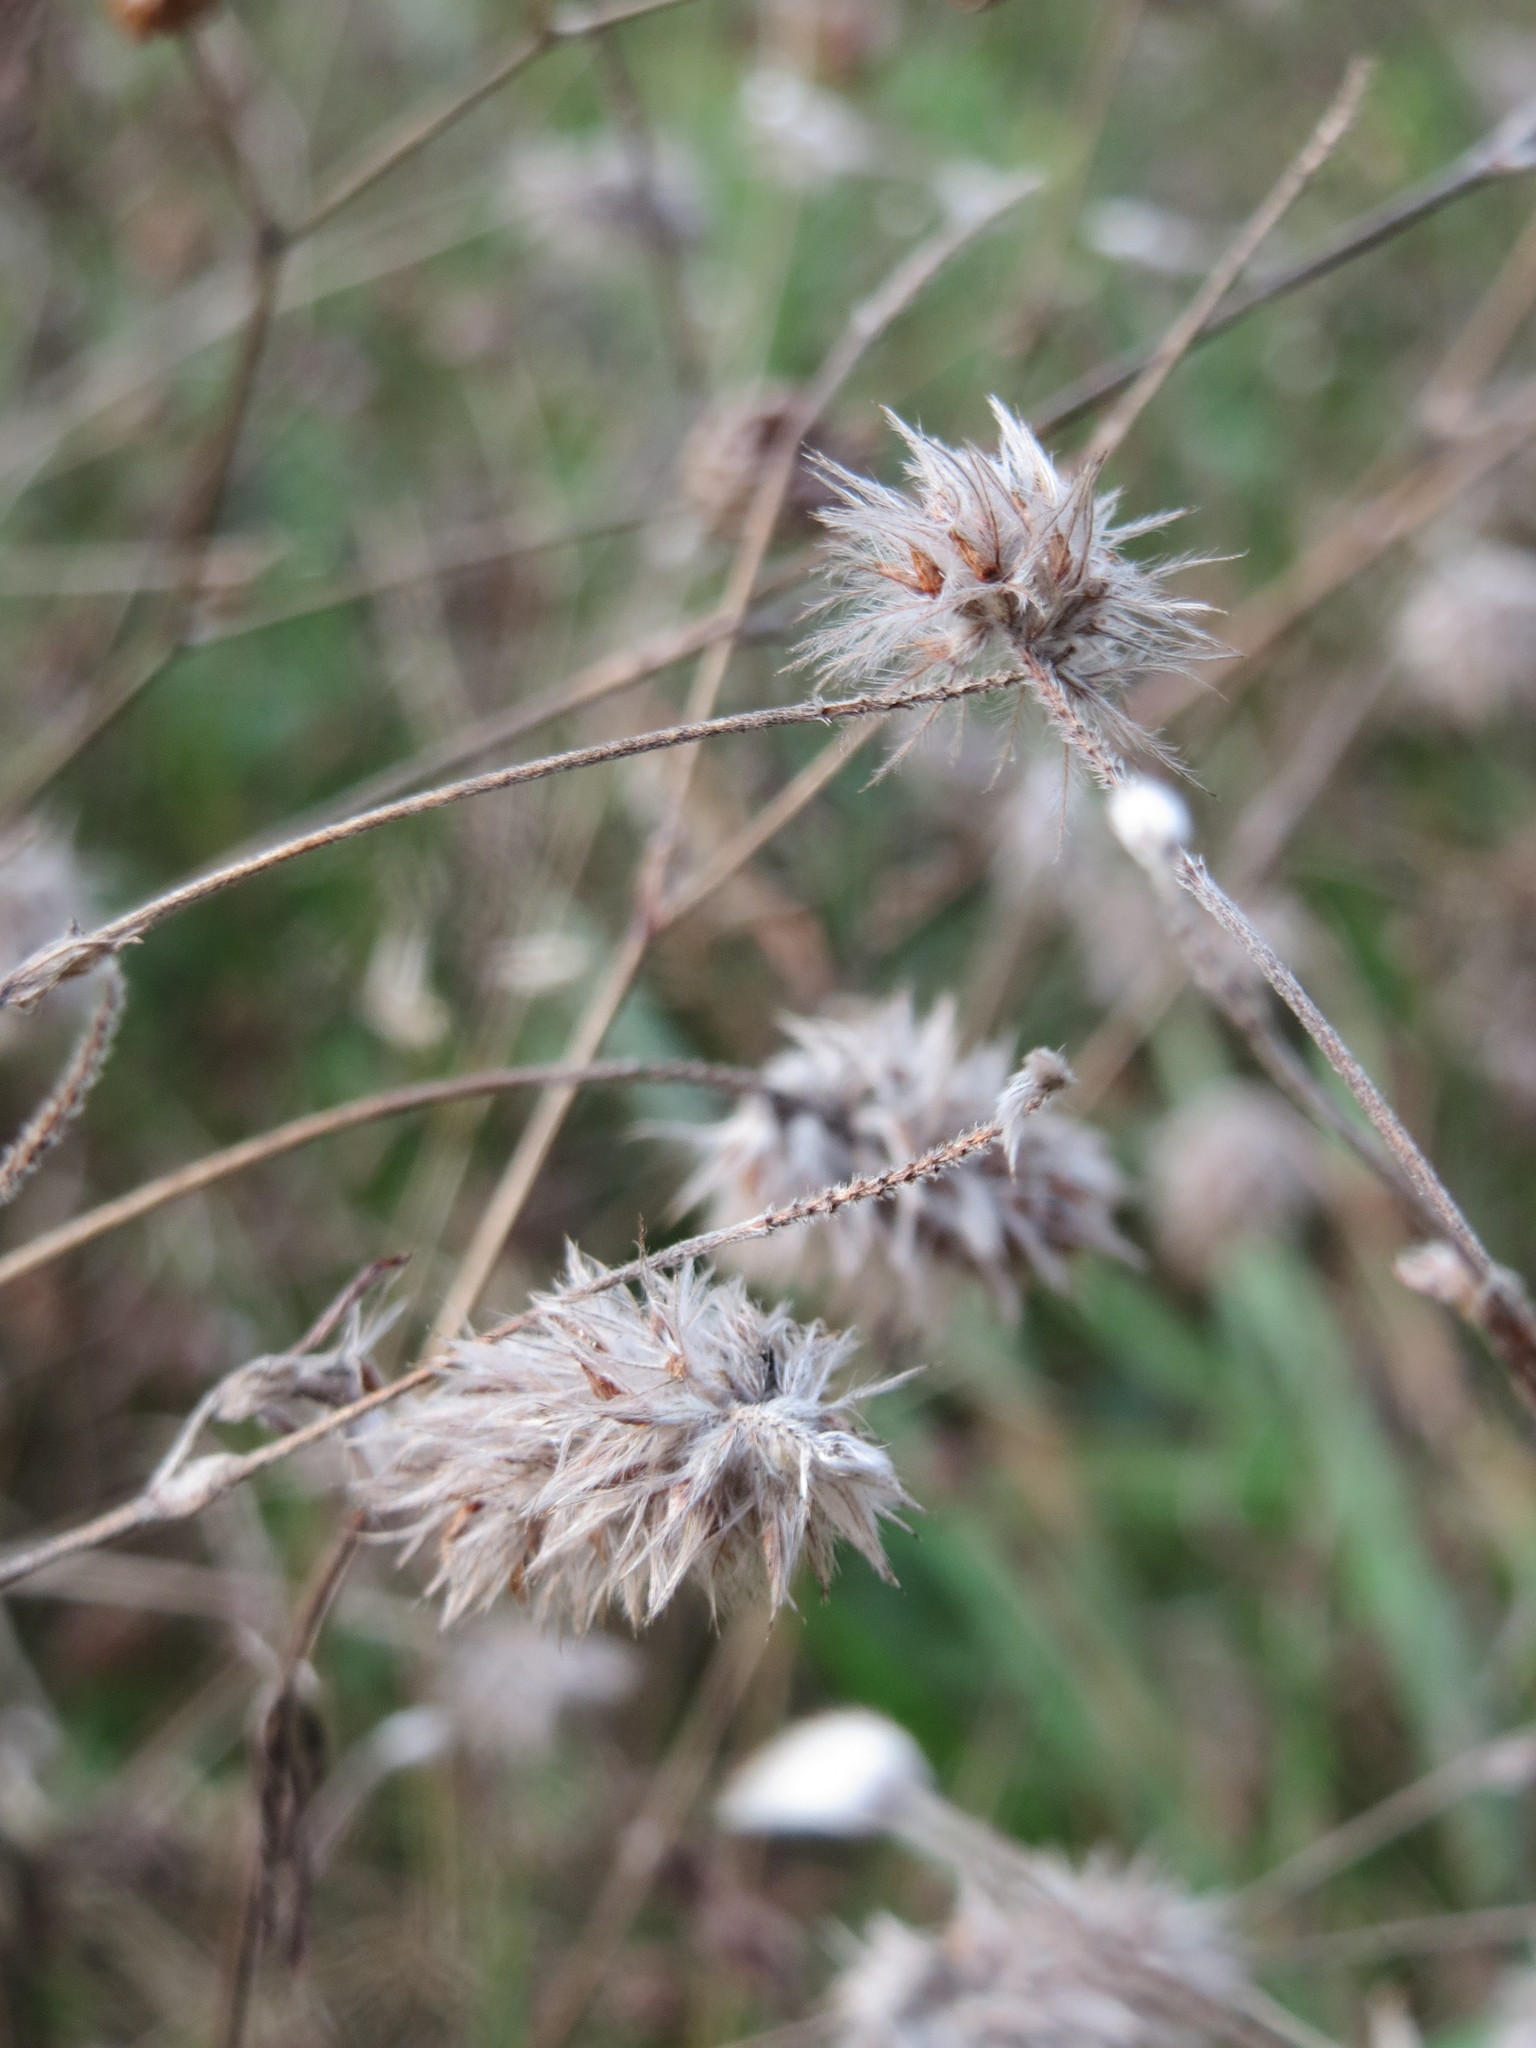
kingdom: Plantae
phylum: Tracheophyta
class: Magnoliopsida
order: Fabales
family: Fabaceae
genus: Trifolium
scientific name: Trifolium arvense
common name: Hare's-foot clover
